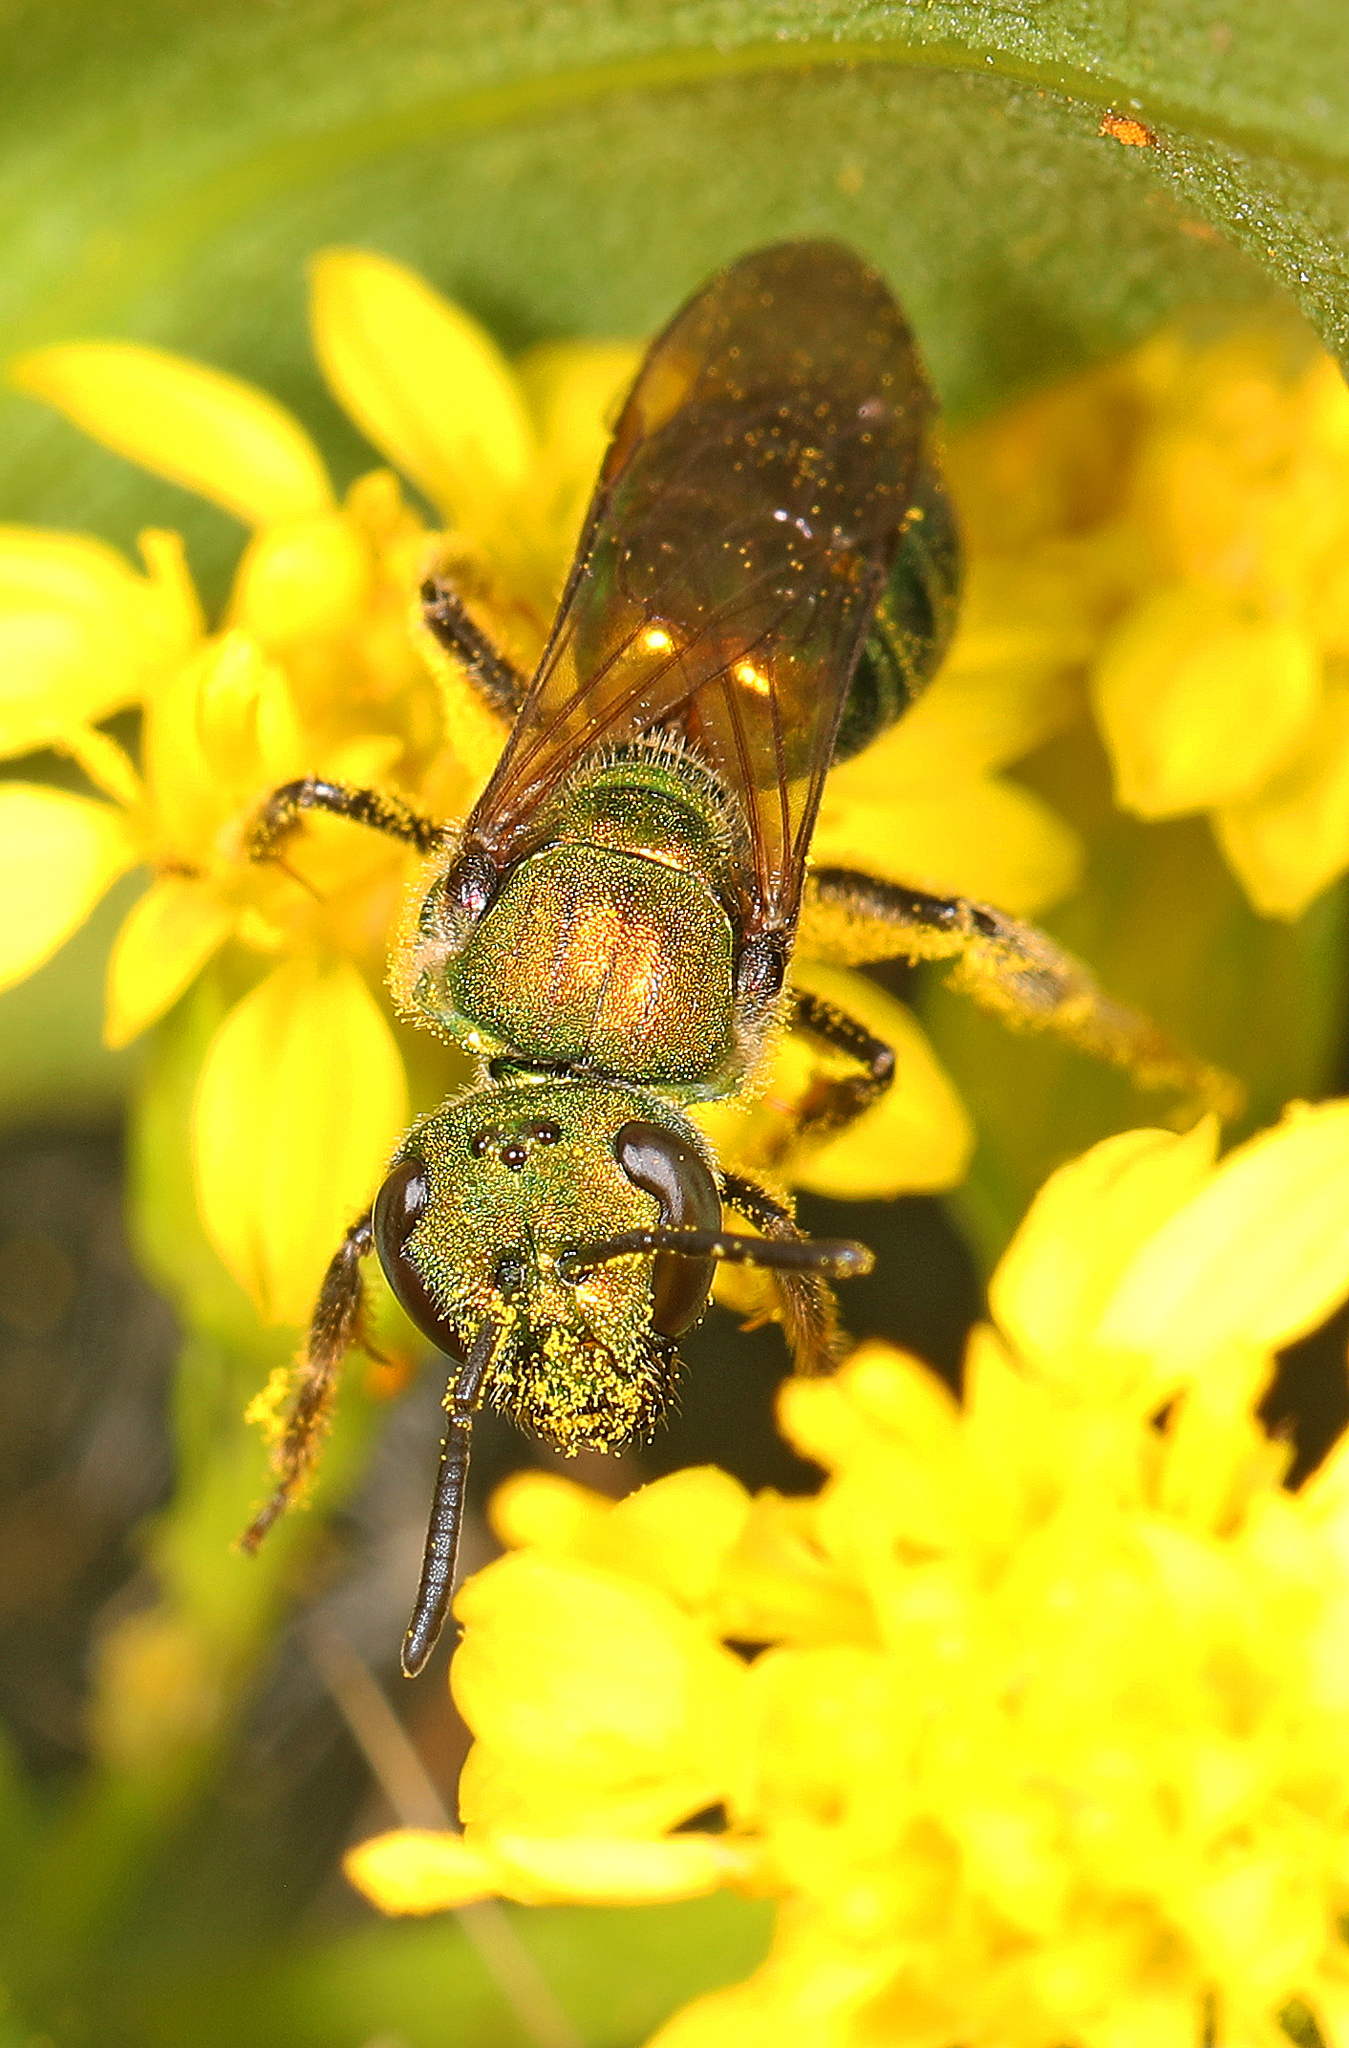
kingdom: Animalia
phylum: Arthropoda
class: Insecta
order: Hymenoptera
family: Halictidae
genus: Augochlora
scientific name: Augochlora pura
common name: Pure green sweat bee
